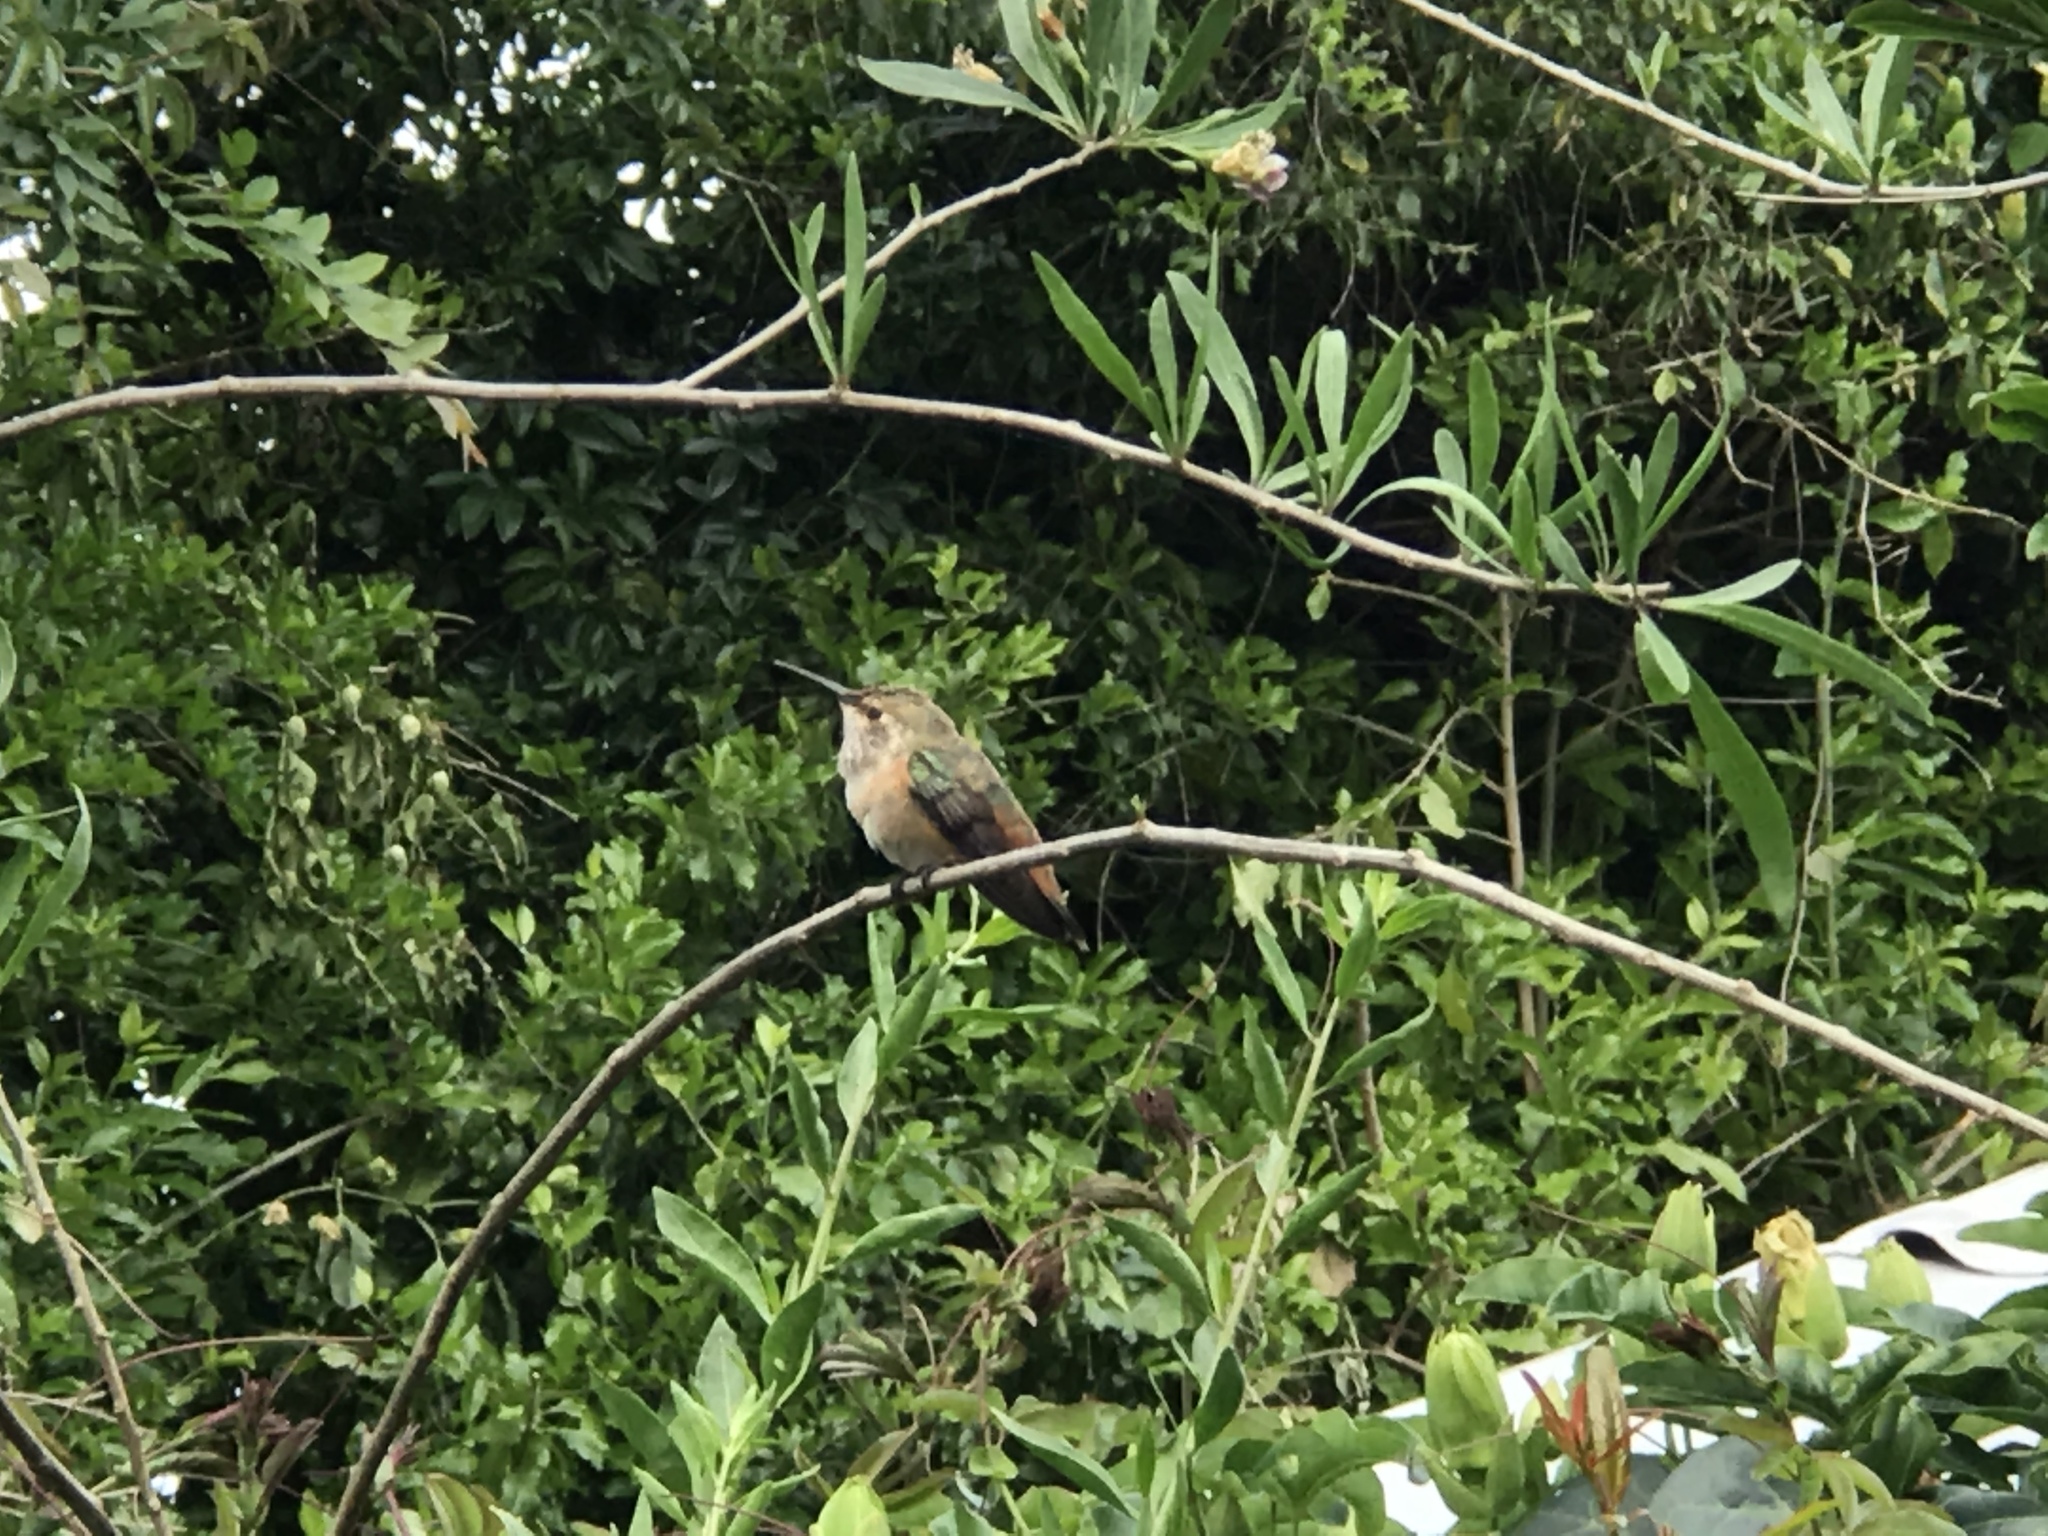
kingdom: Animalia
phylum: Chordata
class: Aves
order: Apodiformes
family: Trochilidae
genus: Selasphorus
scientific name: Selasphorus sasin
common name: Allen's hummingbird
